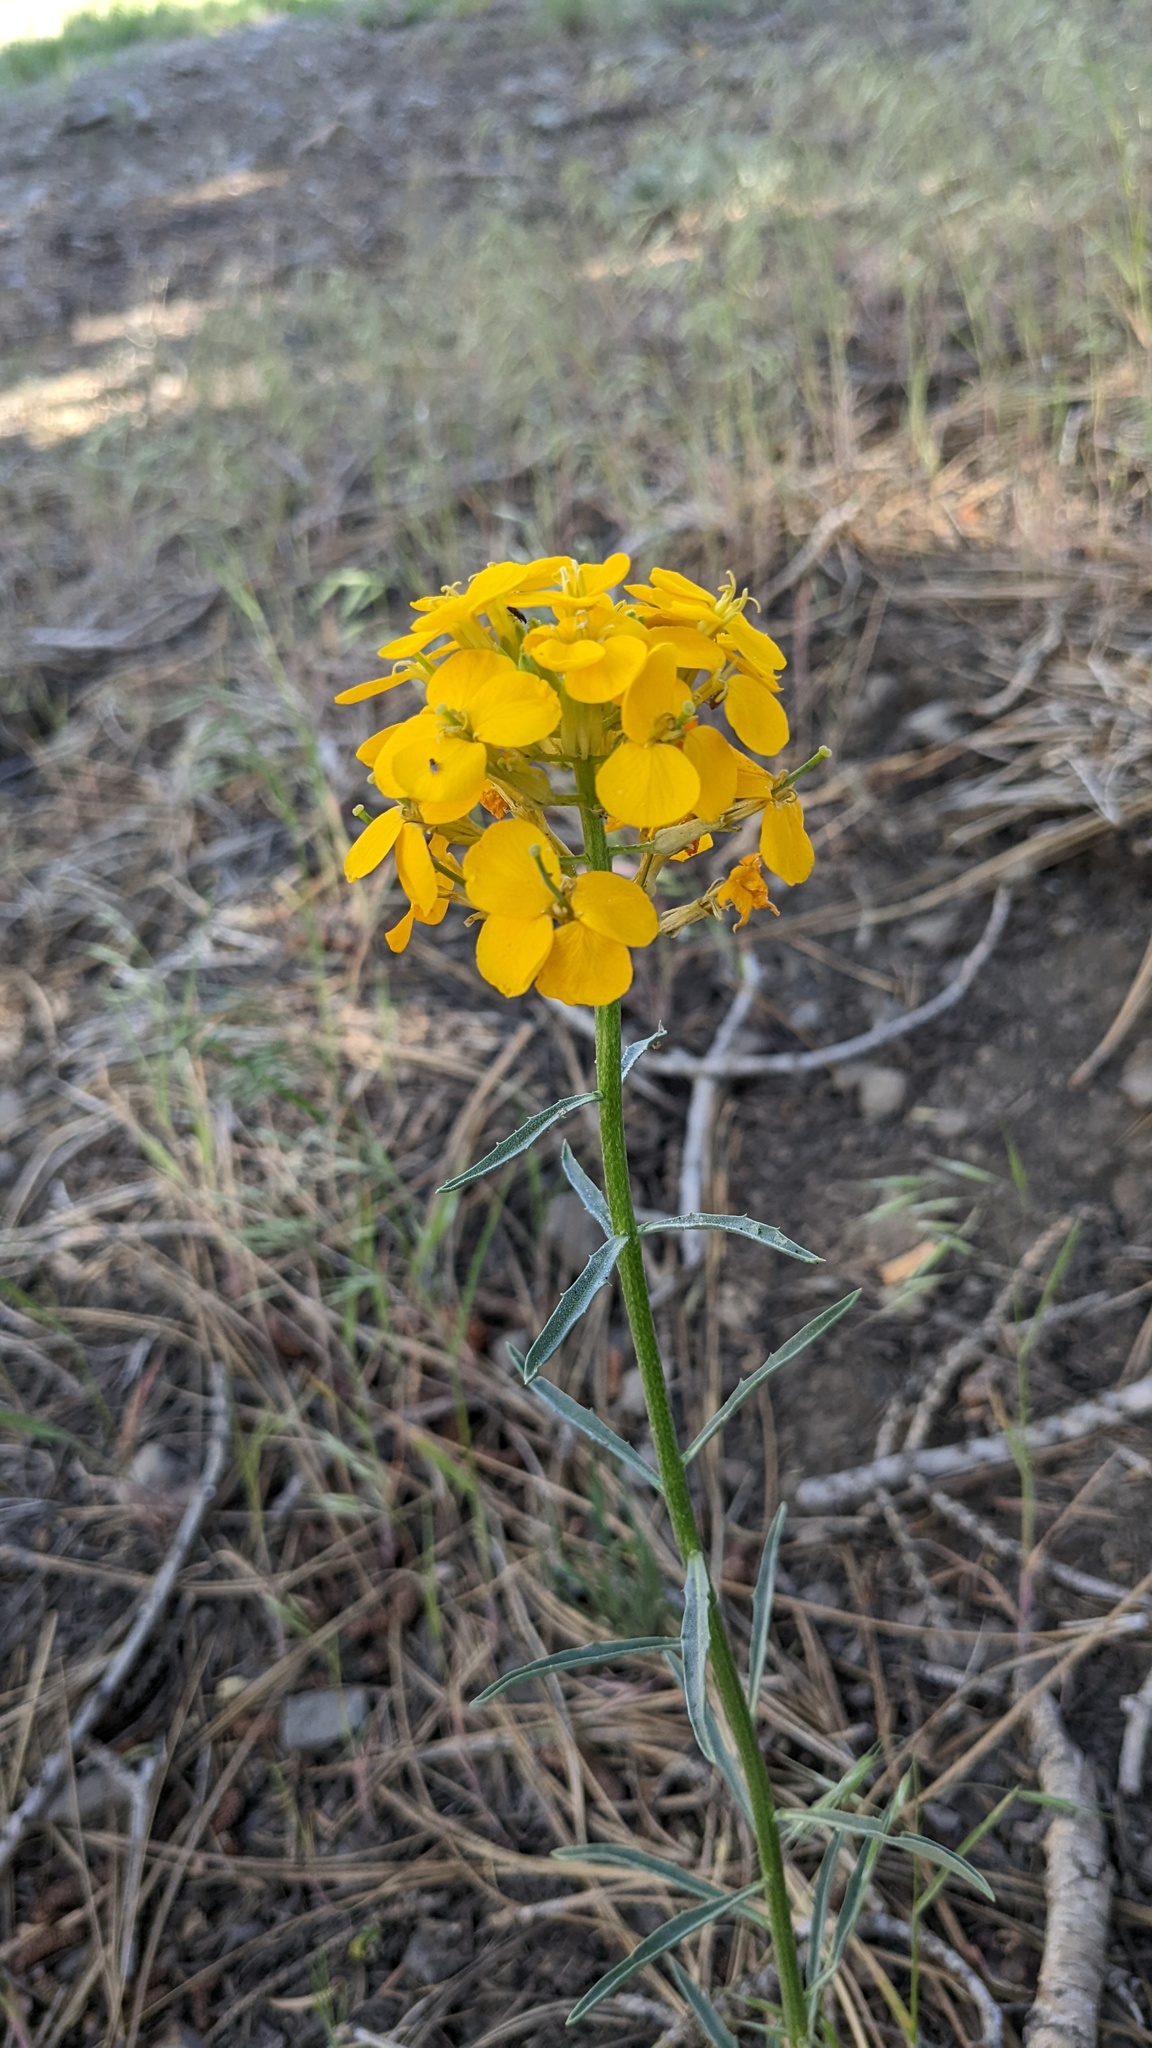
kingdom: Plantae
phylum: Tracheophyta
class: Magnoliopsida
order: Brassicales
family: Brassicaceae
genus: Erysimum
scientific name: Erysimum capitatum
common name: Western wallflower
